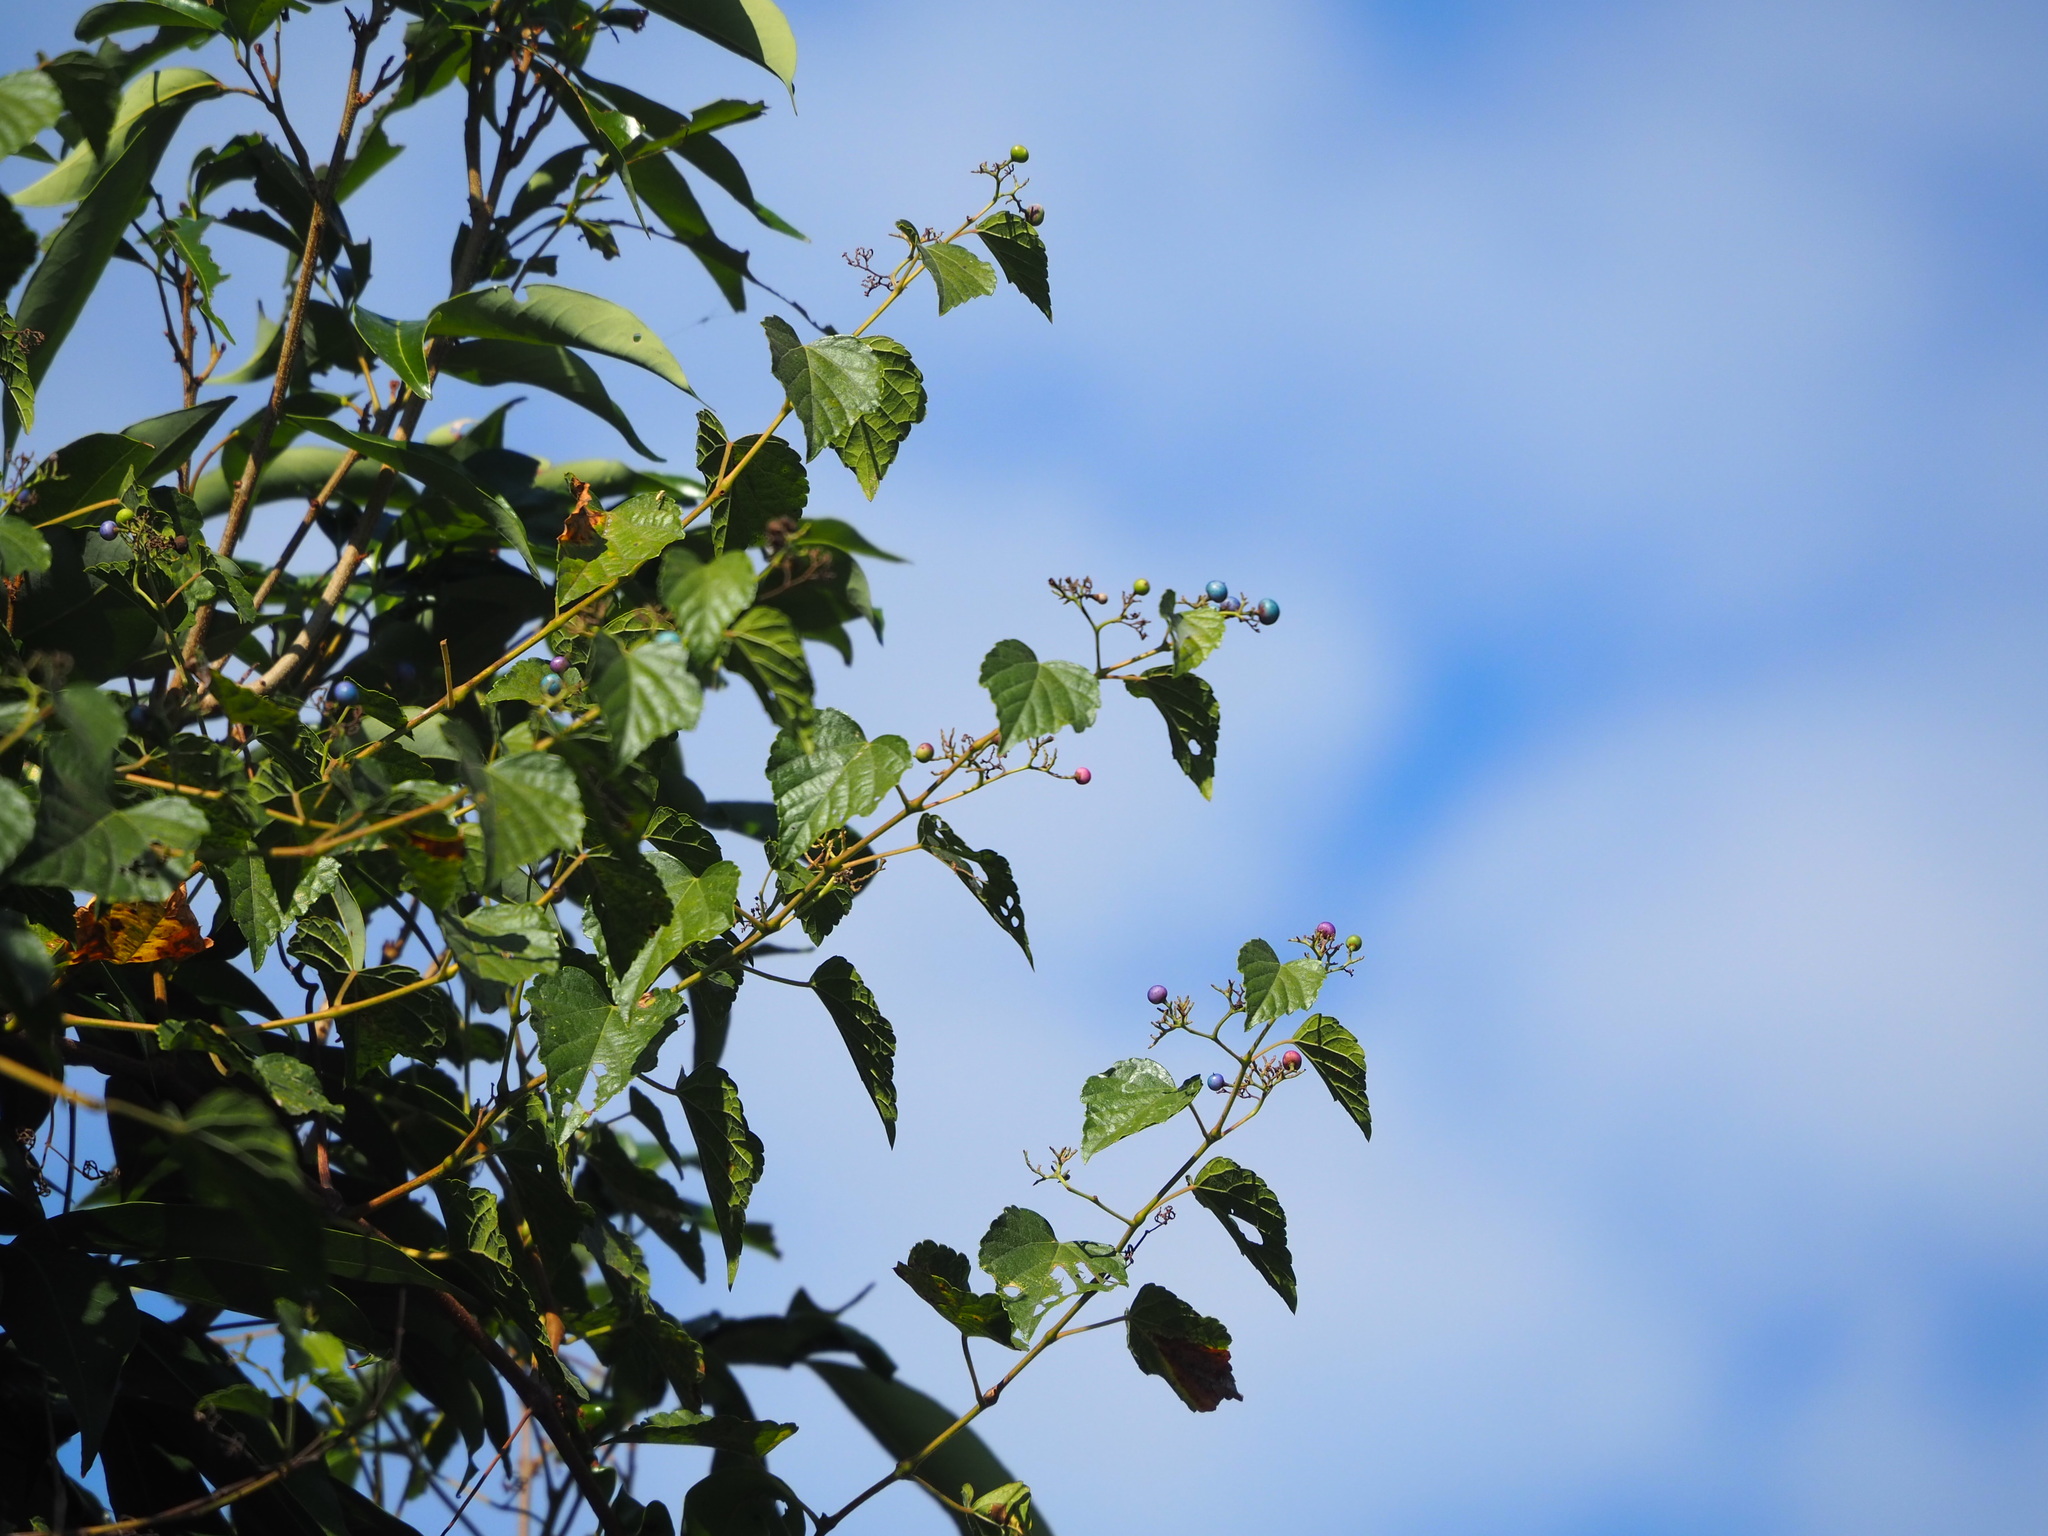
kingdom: Plantae
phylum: Tracheophyta
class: Magnoliopsida
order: Vitales
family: Vitaceae
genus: Ampelopsis
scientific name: Ampelopsis glandulosa
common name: Amur peppervine
